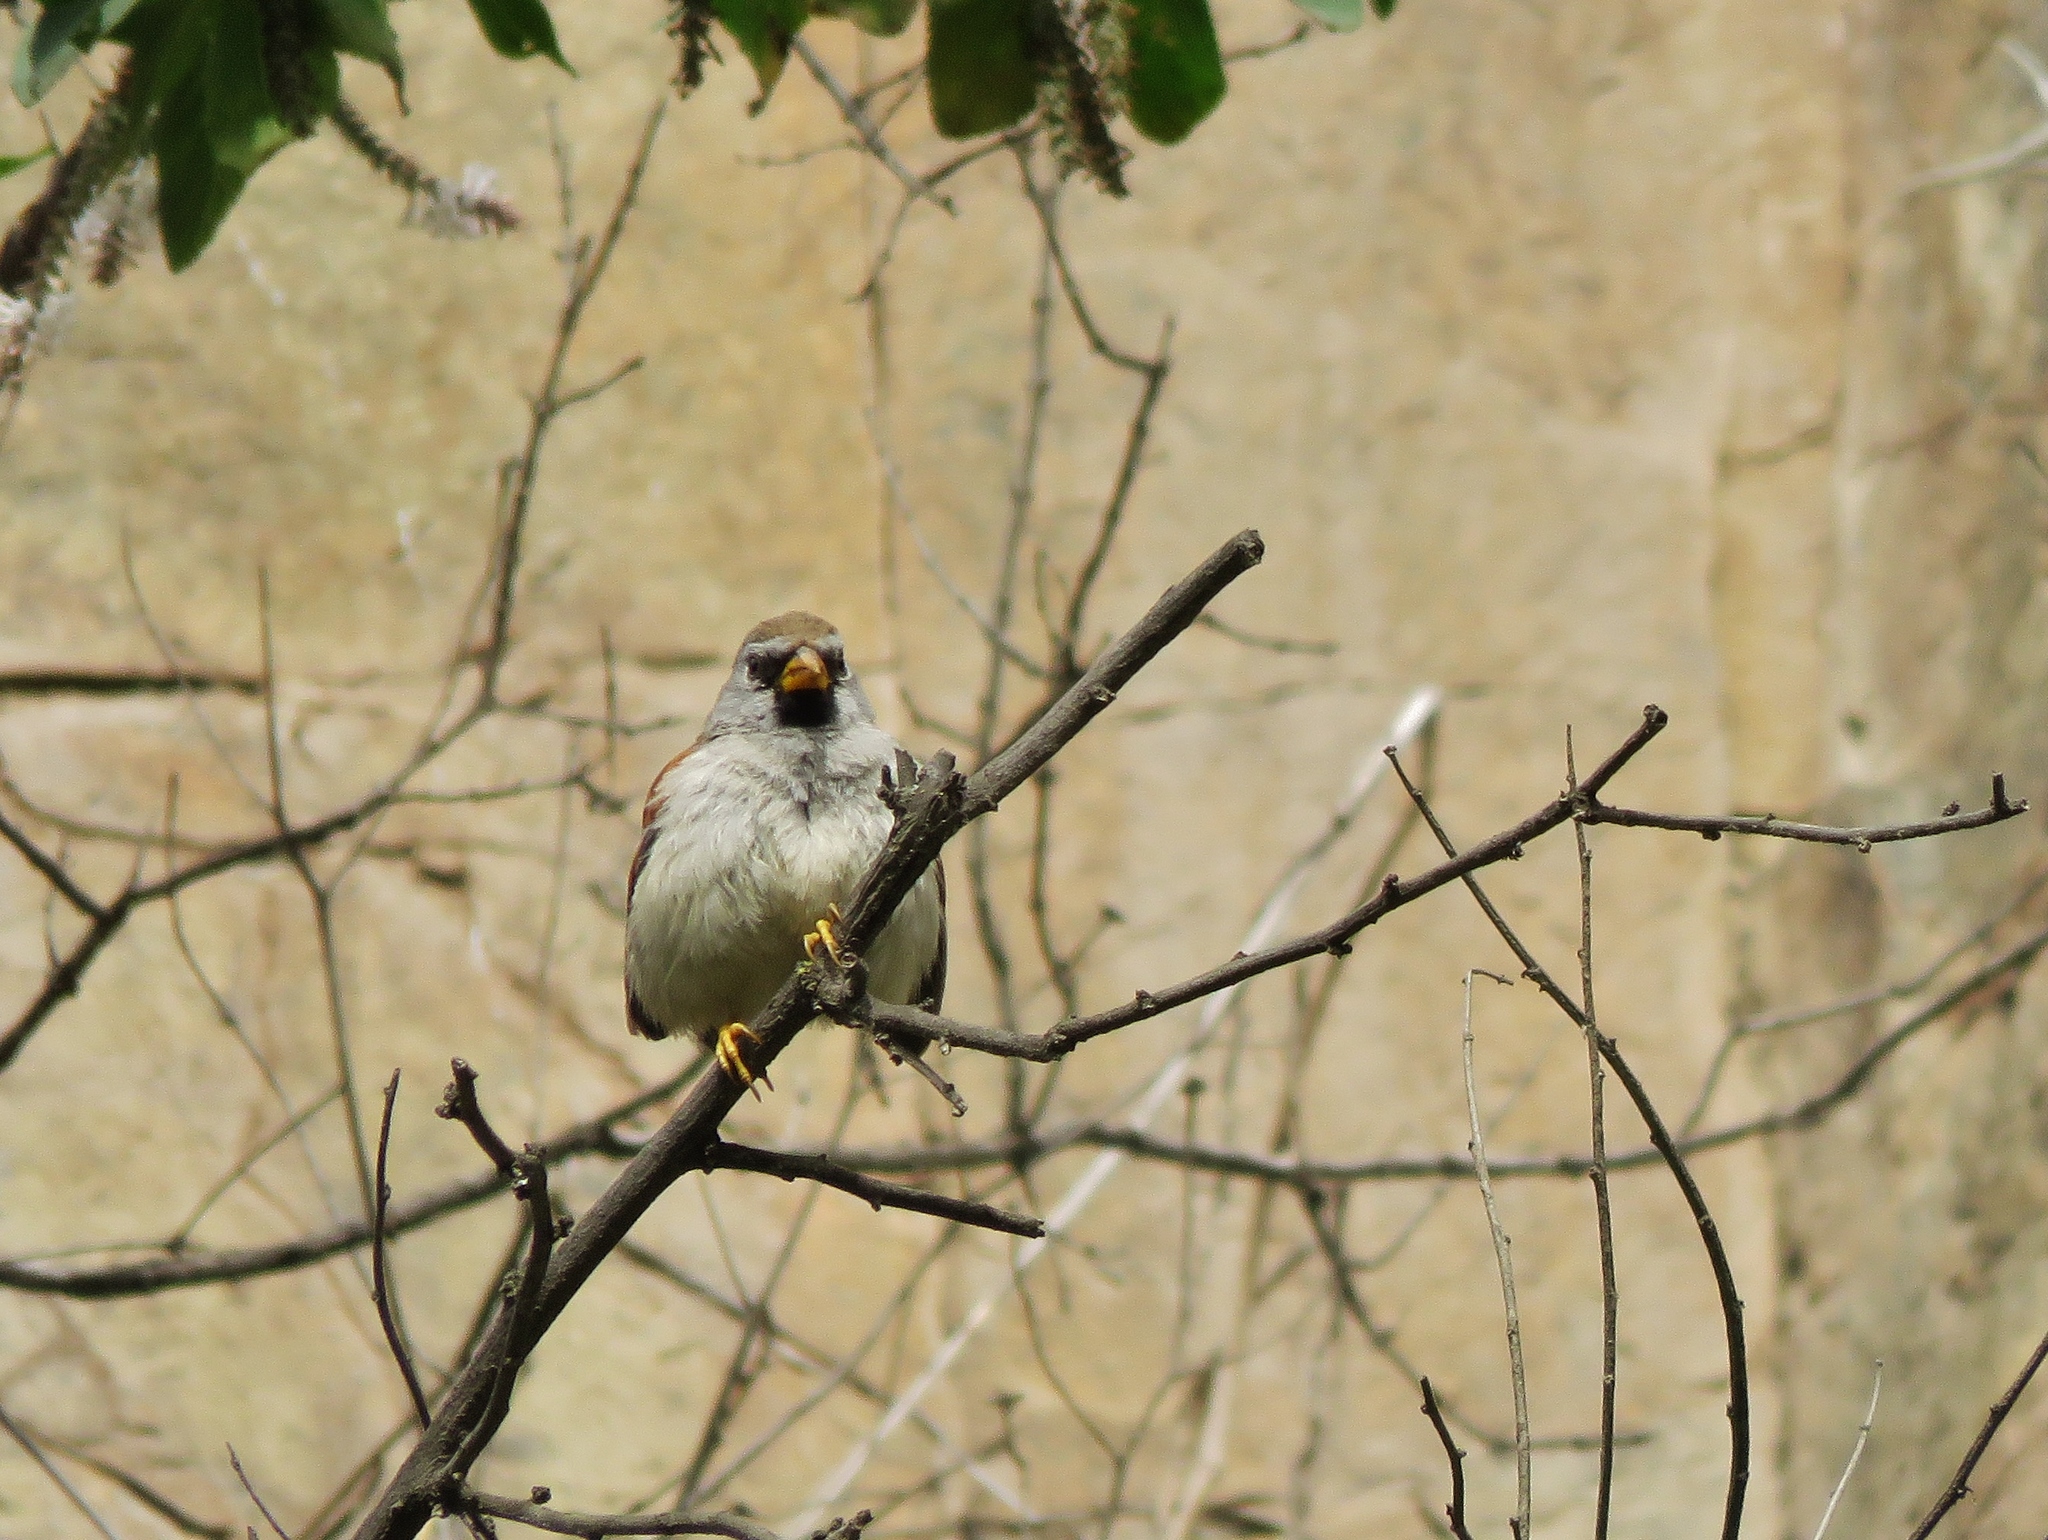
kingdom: Animalia
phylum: Chordata
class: Aves
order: Passeriformes
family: Thraupidae
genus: Incaspiza
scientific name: Incaspiza pulchra
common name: Great inca finch
